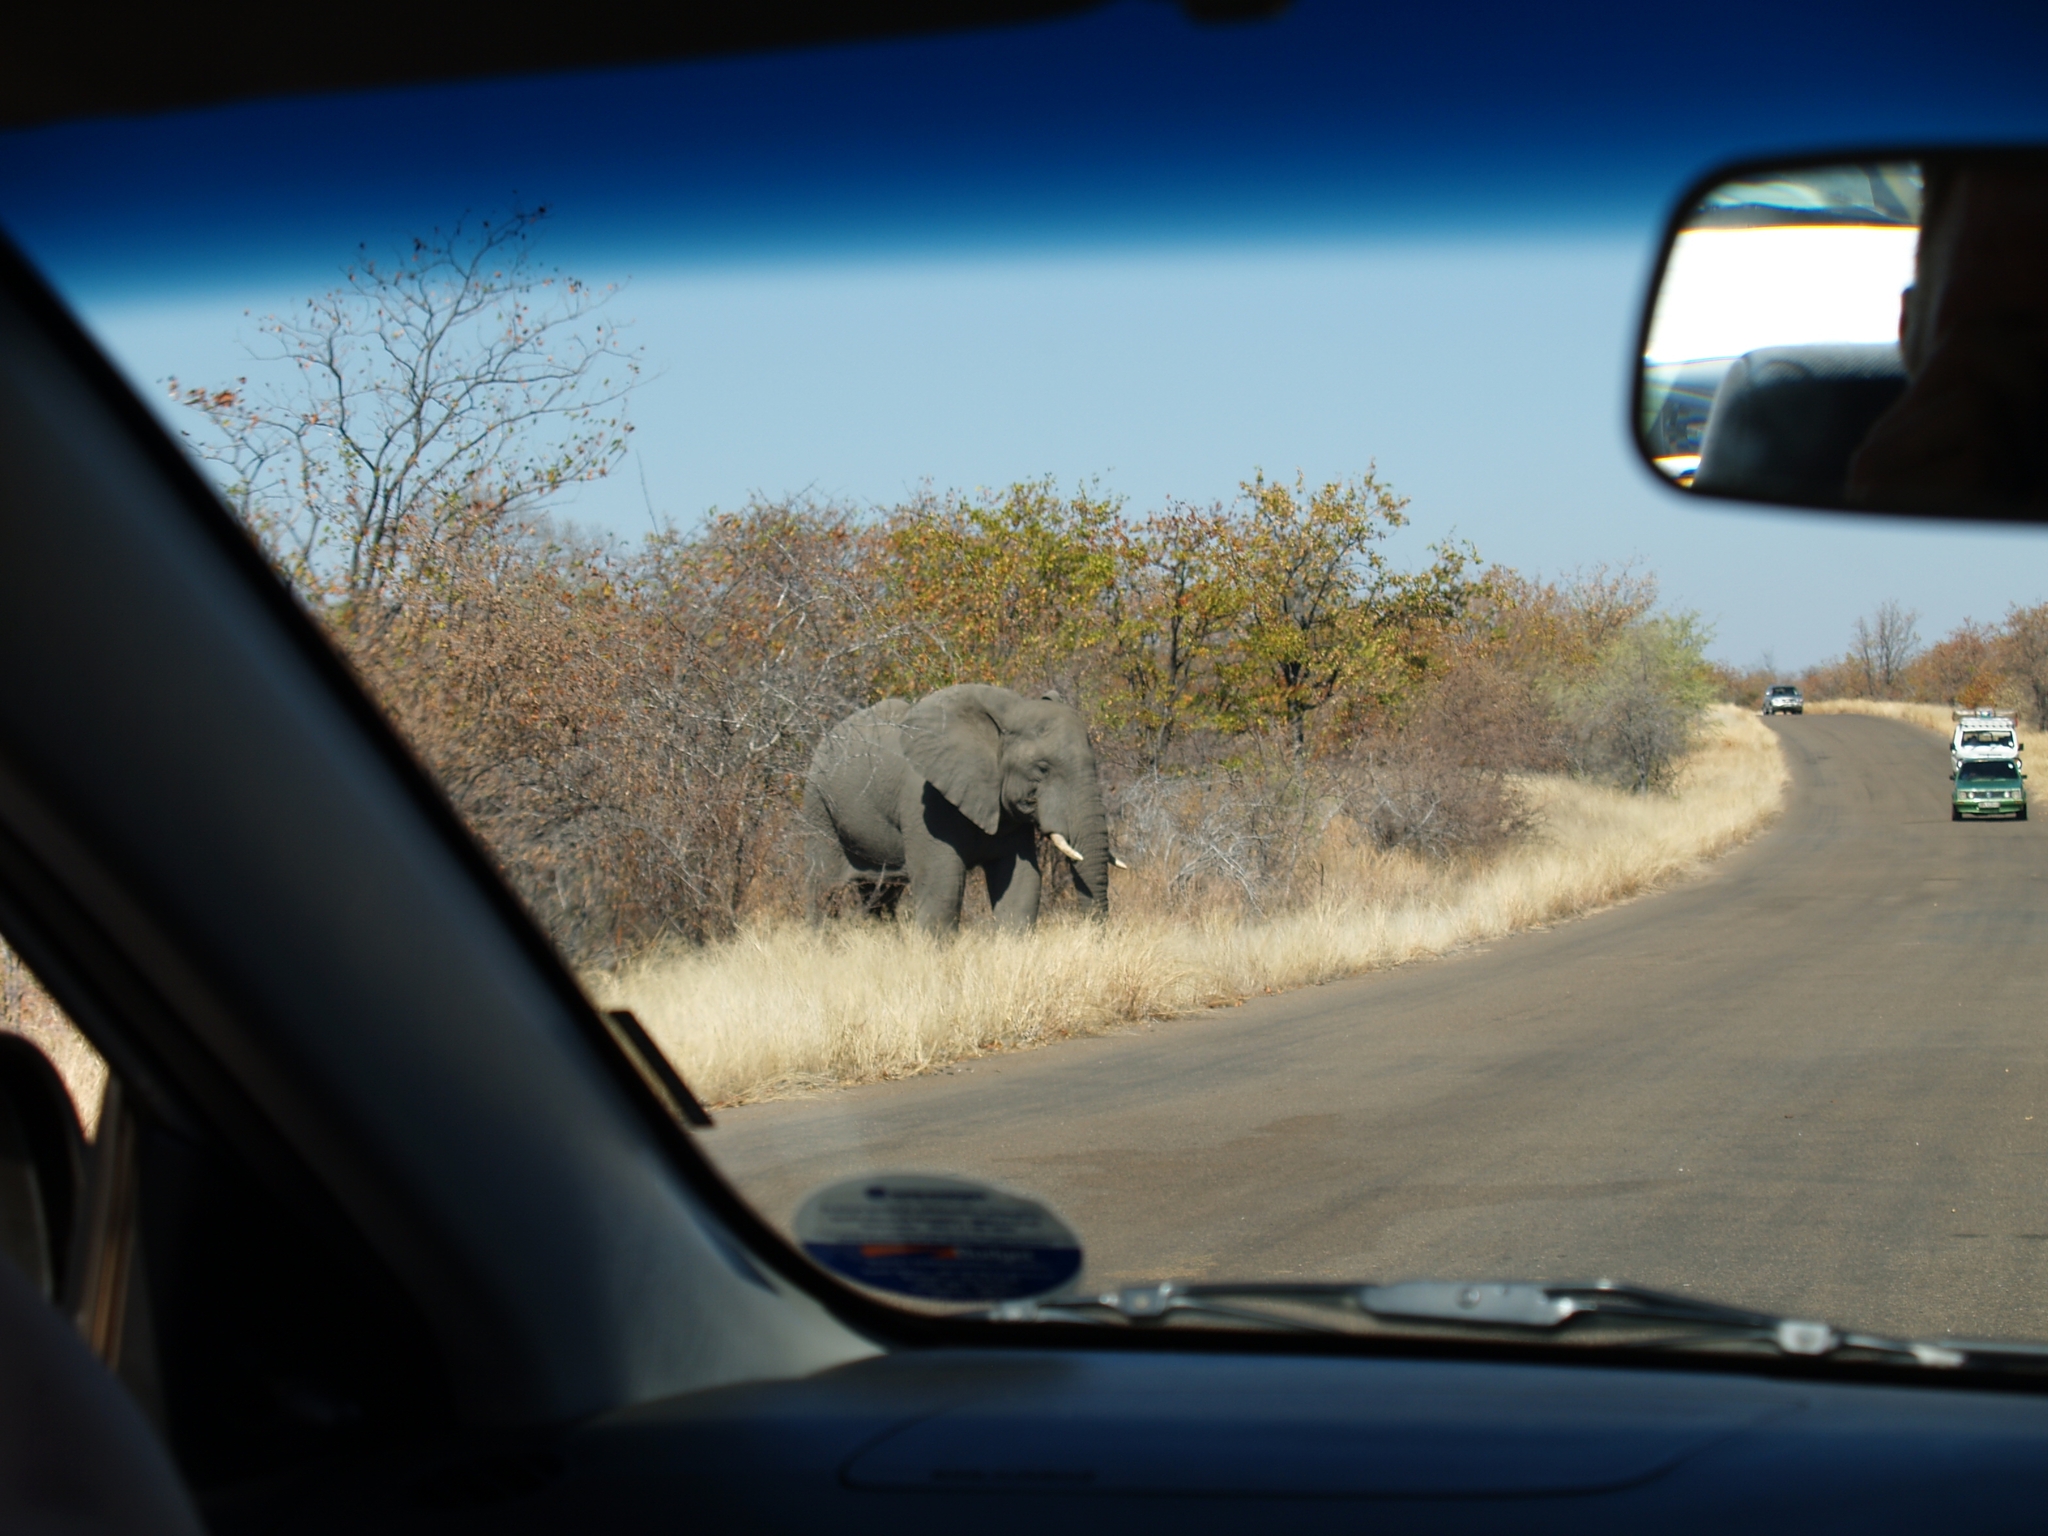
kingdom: Animalia
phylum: Chordata
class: Mammalia
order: Proboscidea
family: Elephantidae
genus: Loxodonta
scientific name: Loxodonta africana
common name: African elephant
